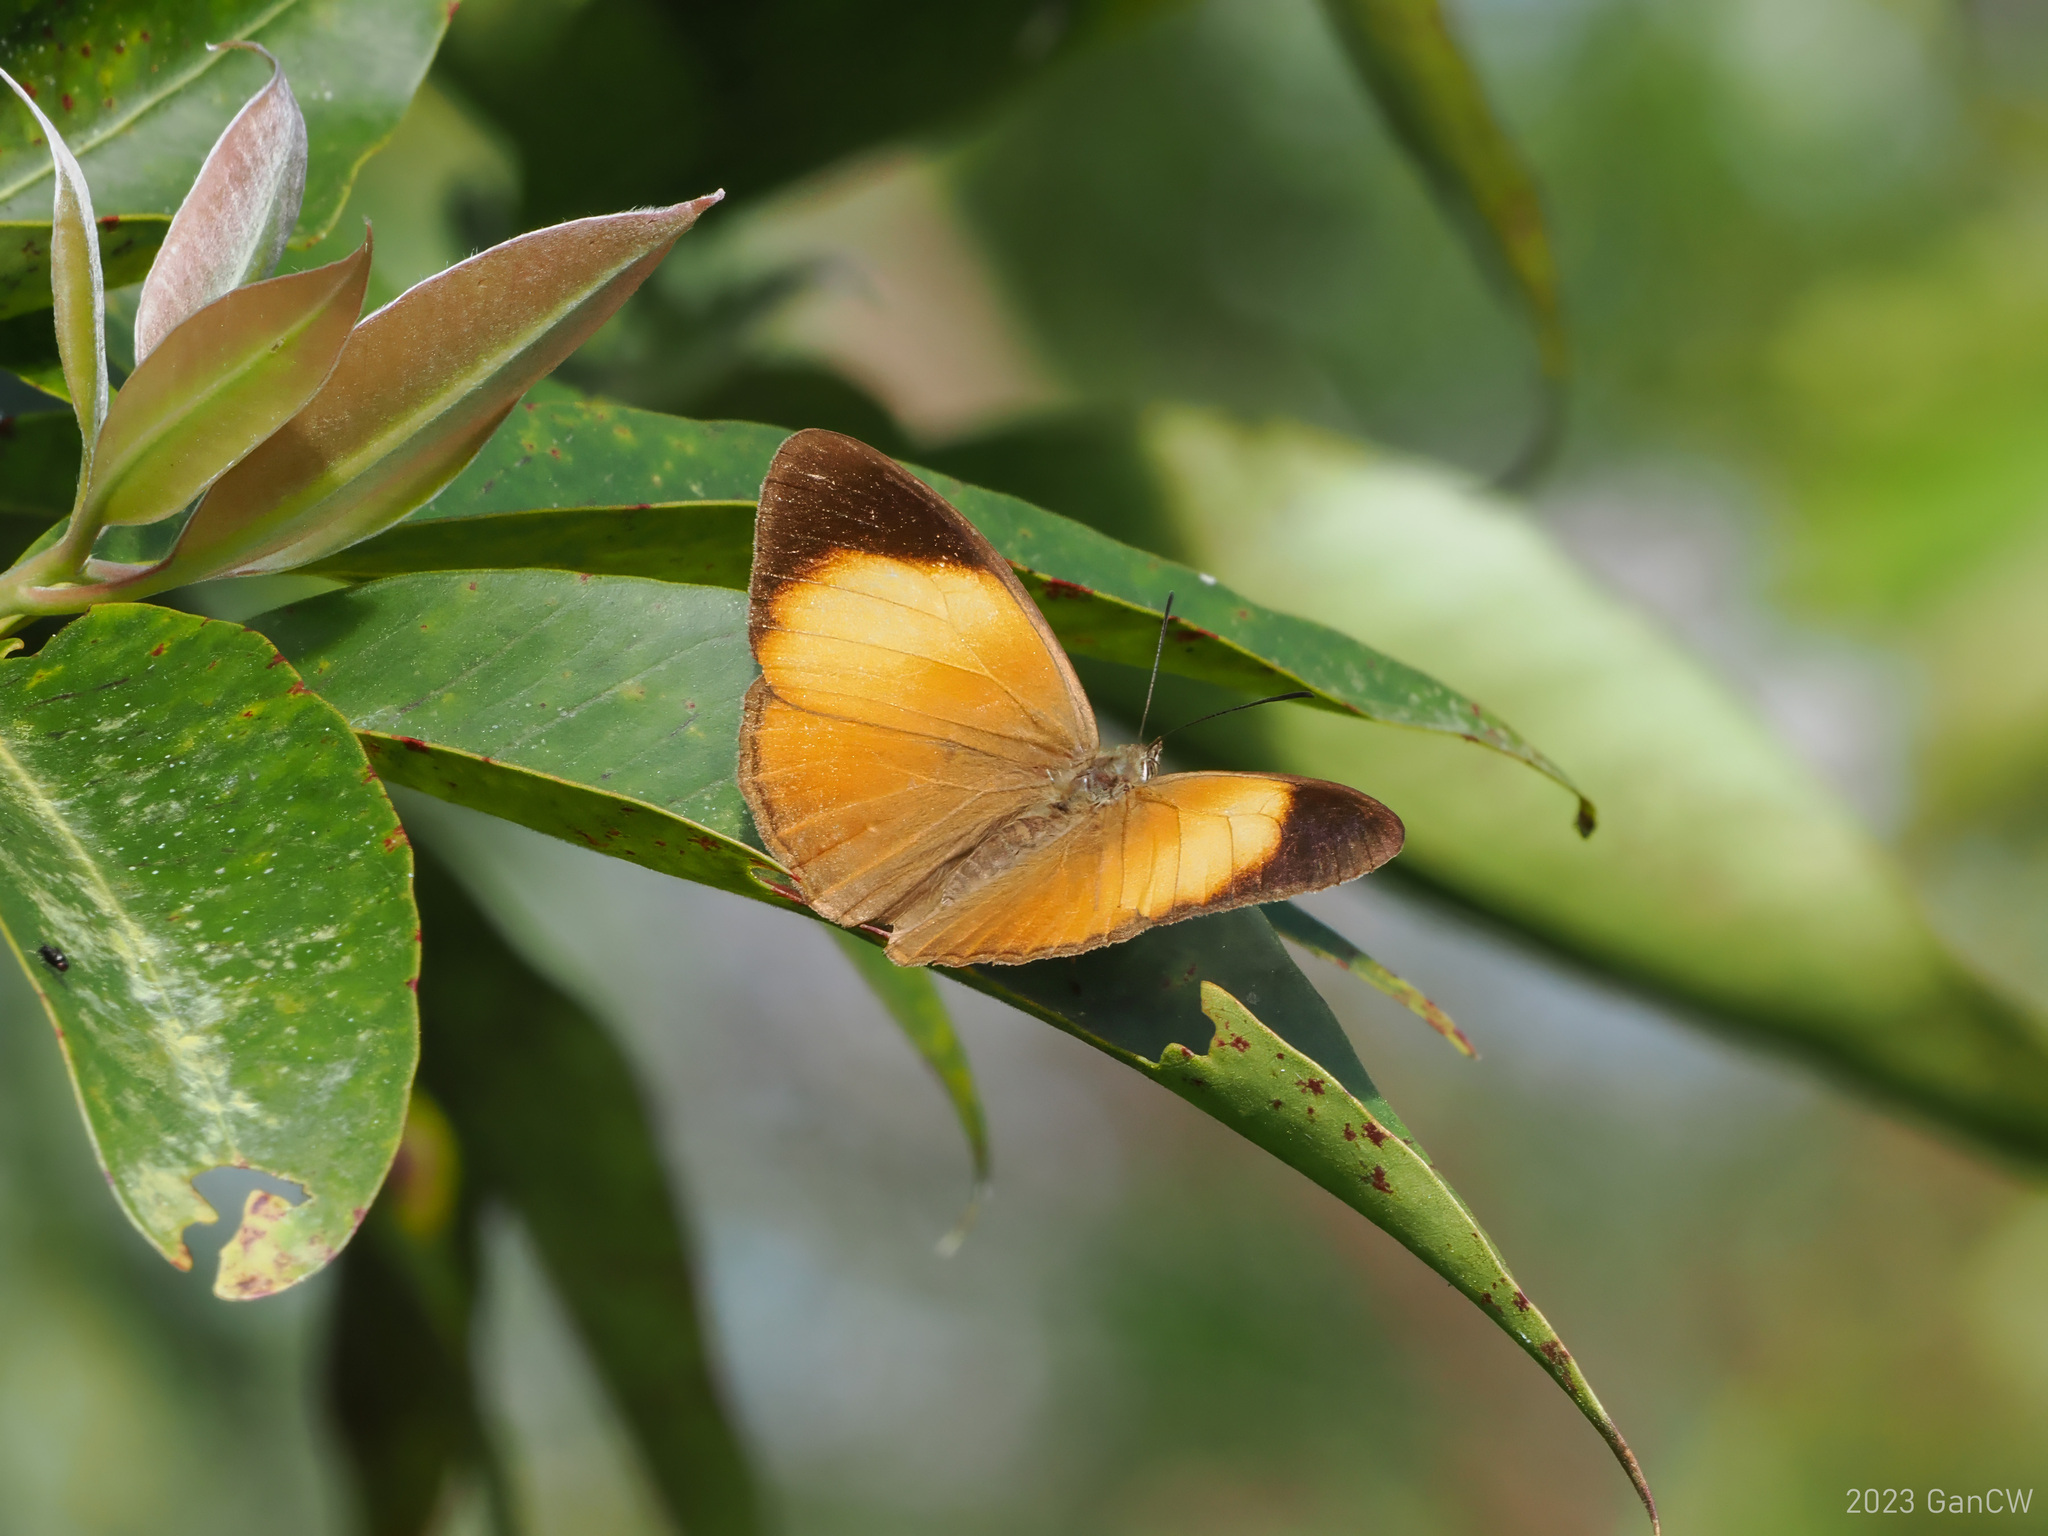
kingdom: Animalia
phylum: Arthropoda
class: Insecta
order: Lepidoptera
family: Nymphalidae
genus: Mycalesis
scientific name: Mycalesis
